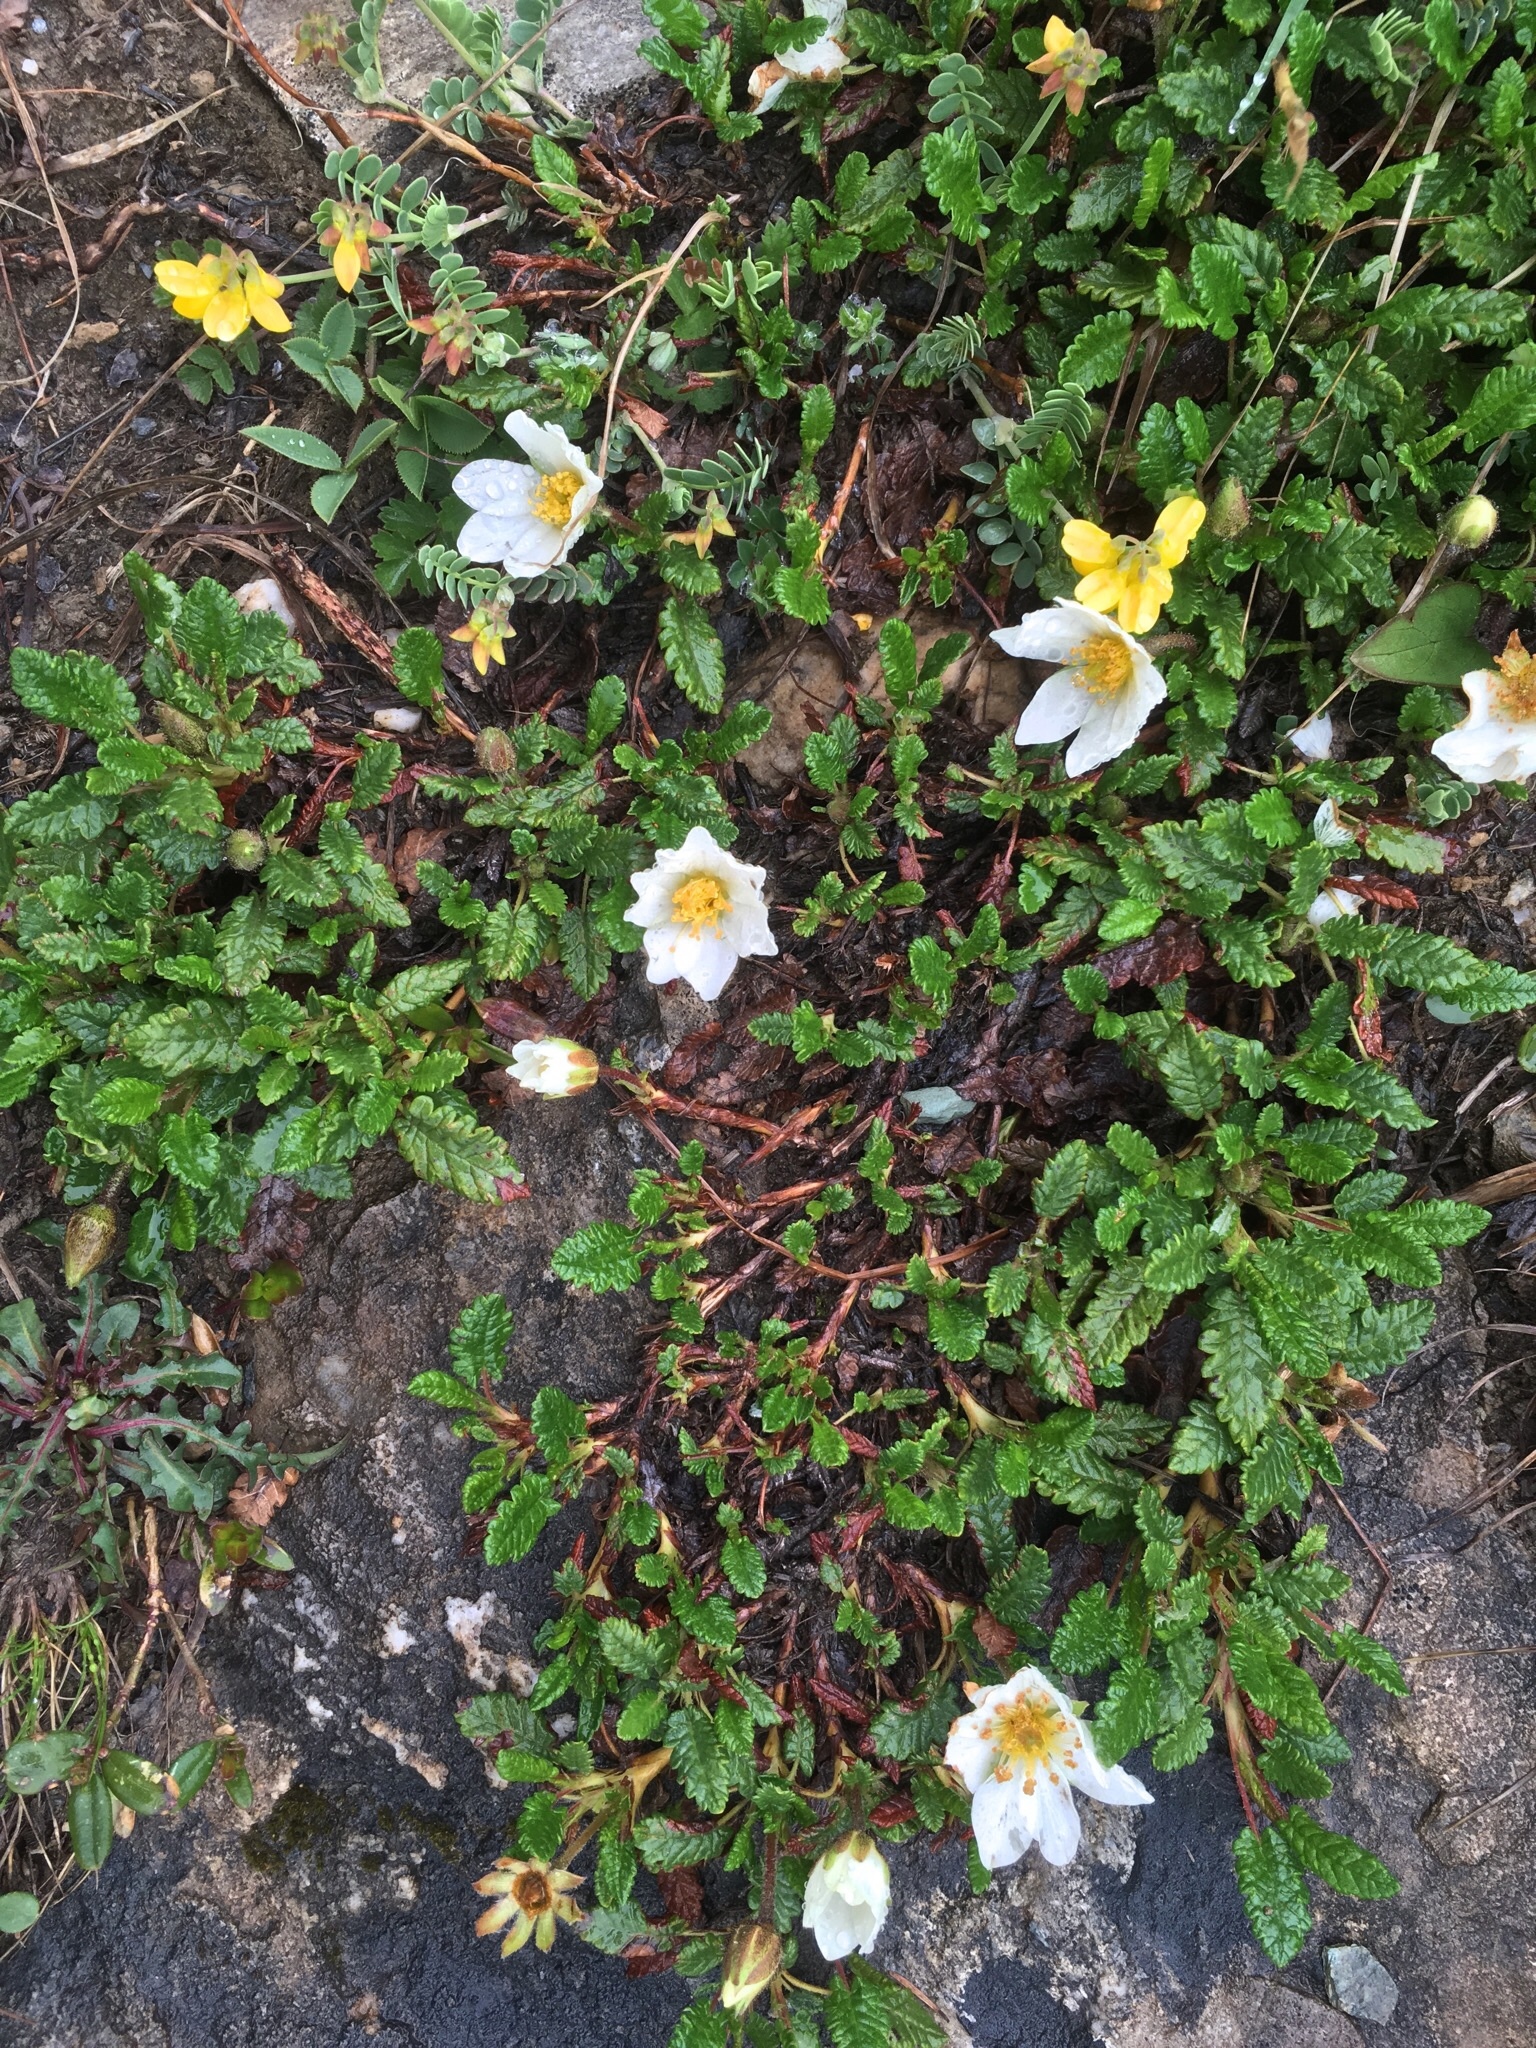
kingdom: Plantae
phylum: Tracheophyta
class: Magnoliopsida
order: Rosales
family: Rosaceae
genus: Dryas
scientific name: Dryas octopetala
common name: Eight-petal mountain-avens
